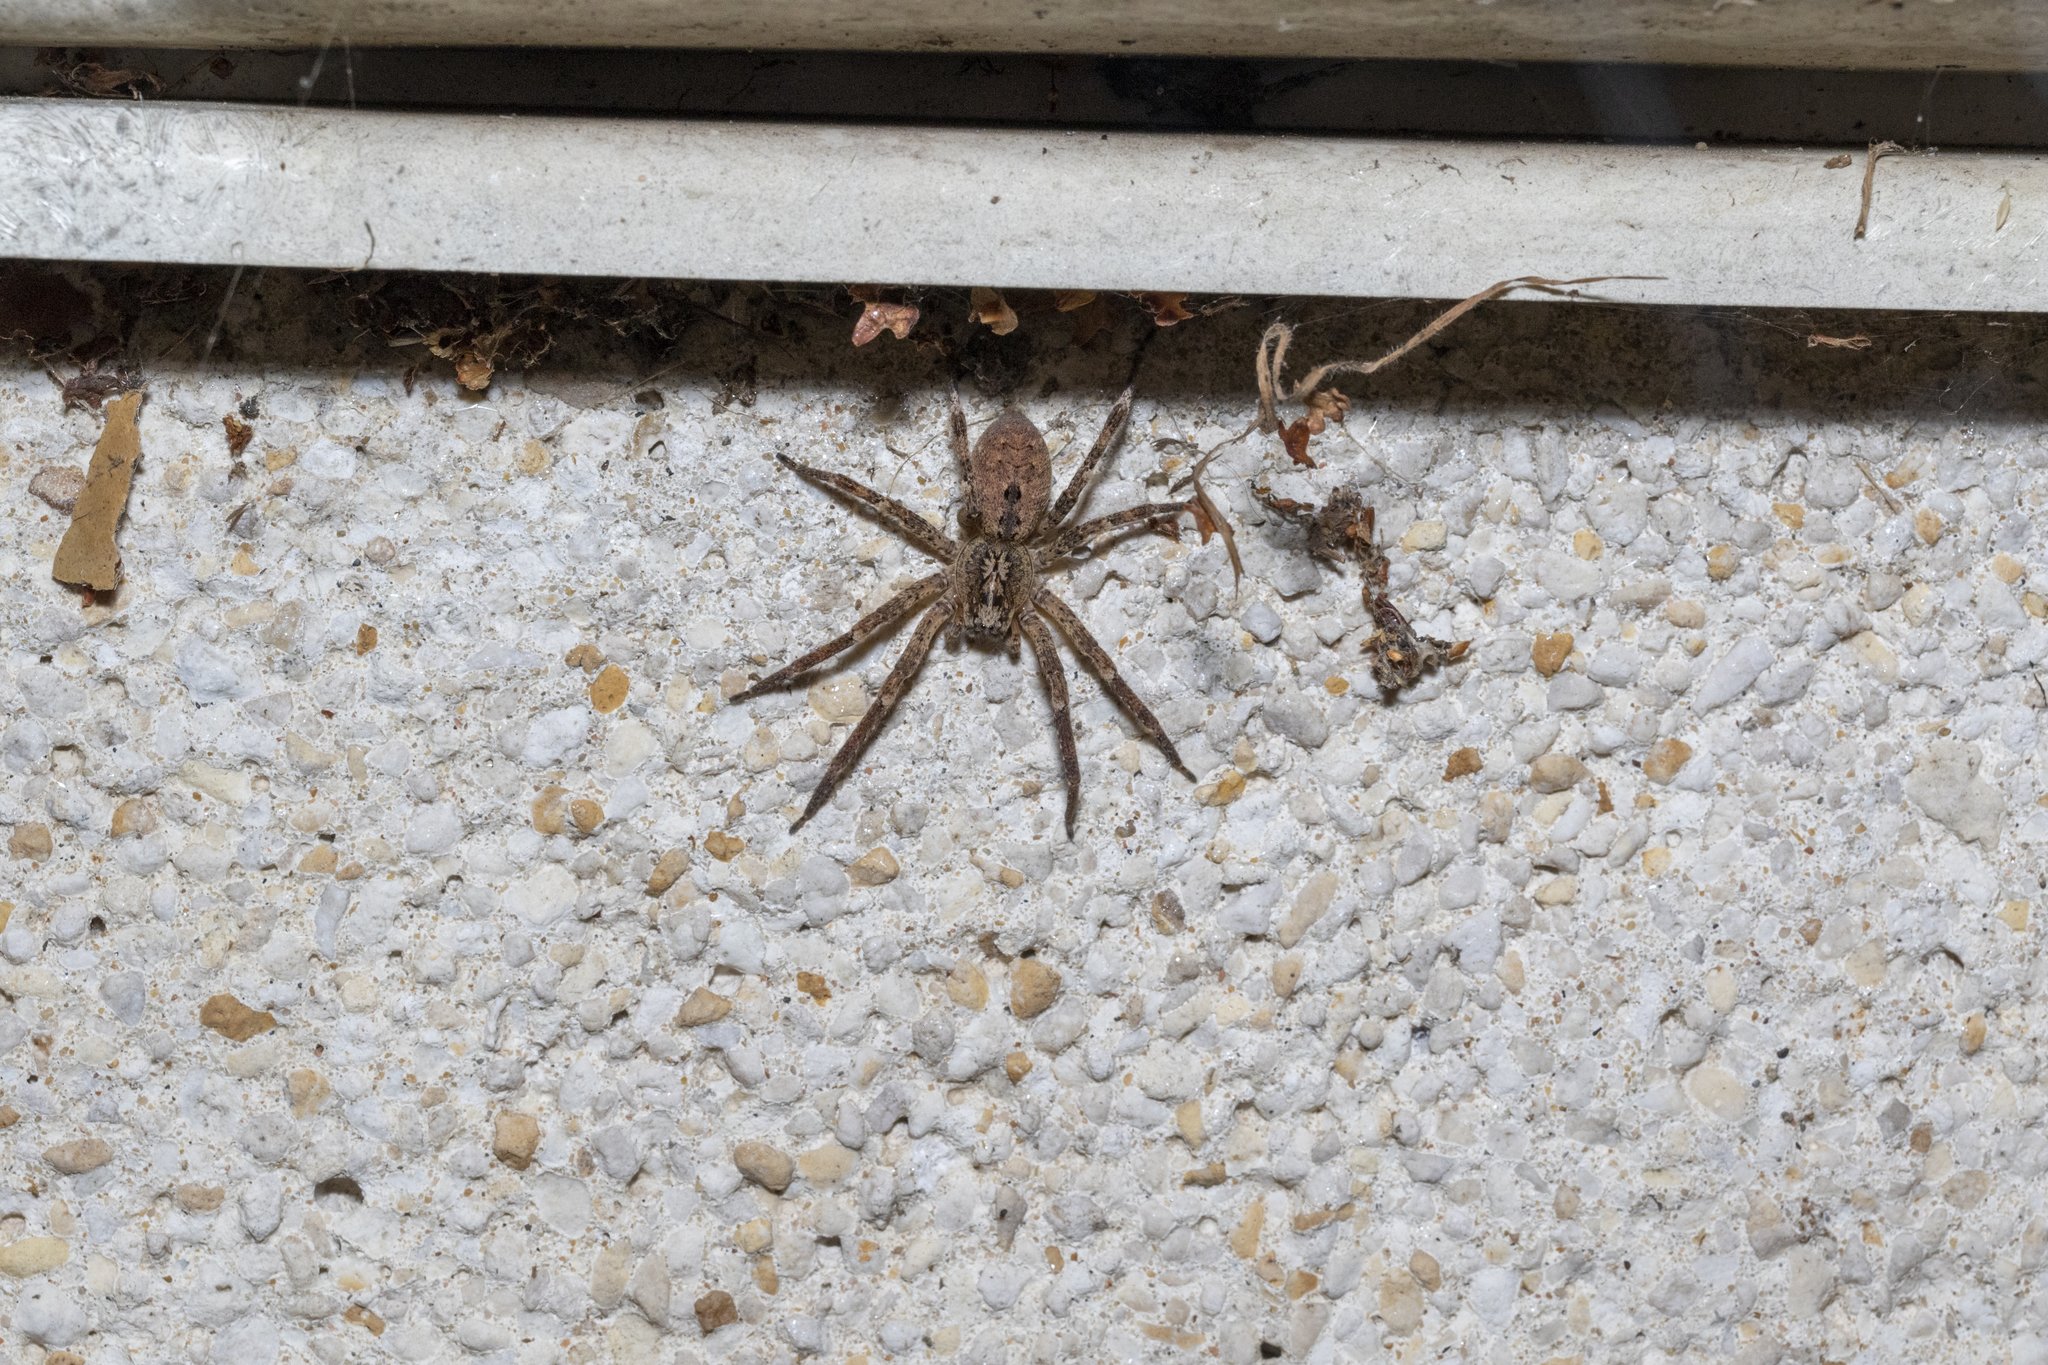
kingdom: Animalia
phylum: Arthropoda
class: Arachnida
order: Araneae
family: Zoropsidae
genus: Zoropsis
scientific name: Zoropsis spinimana
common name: Zoropsid spider
